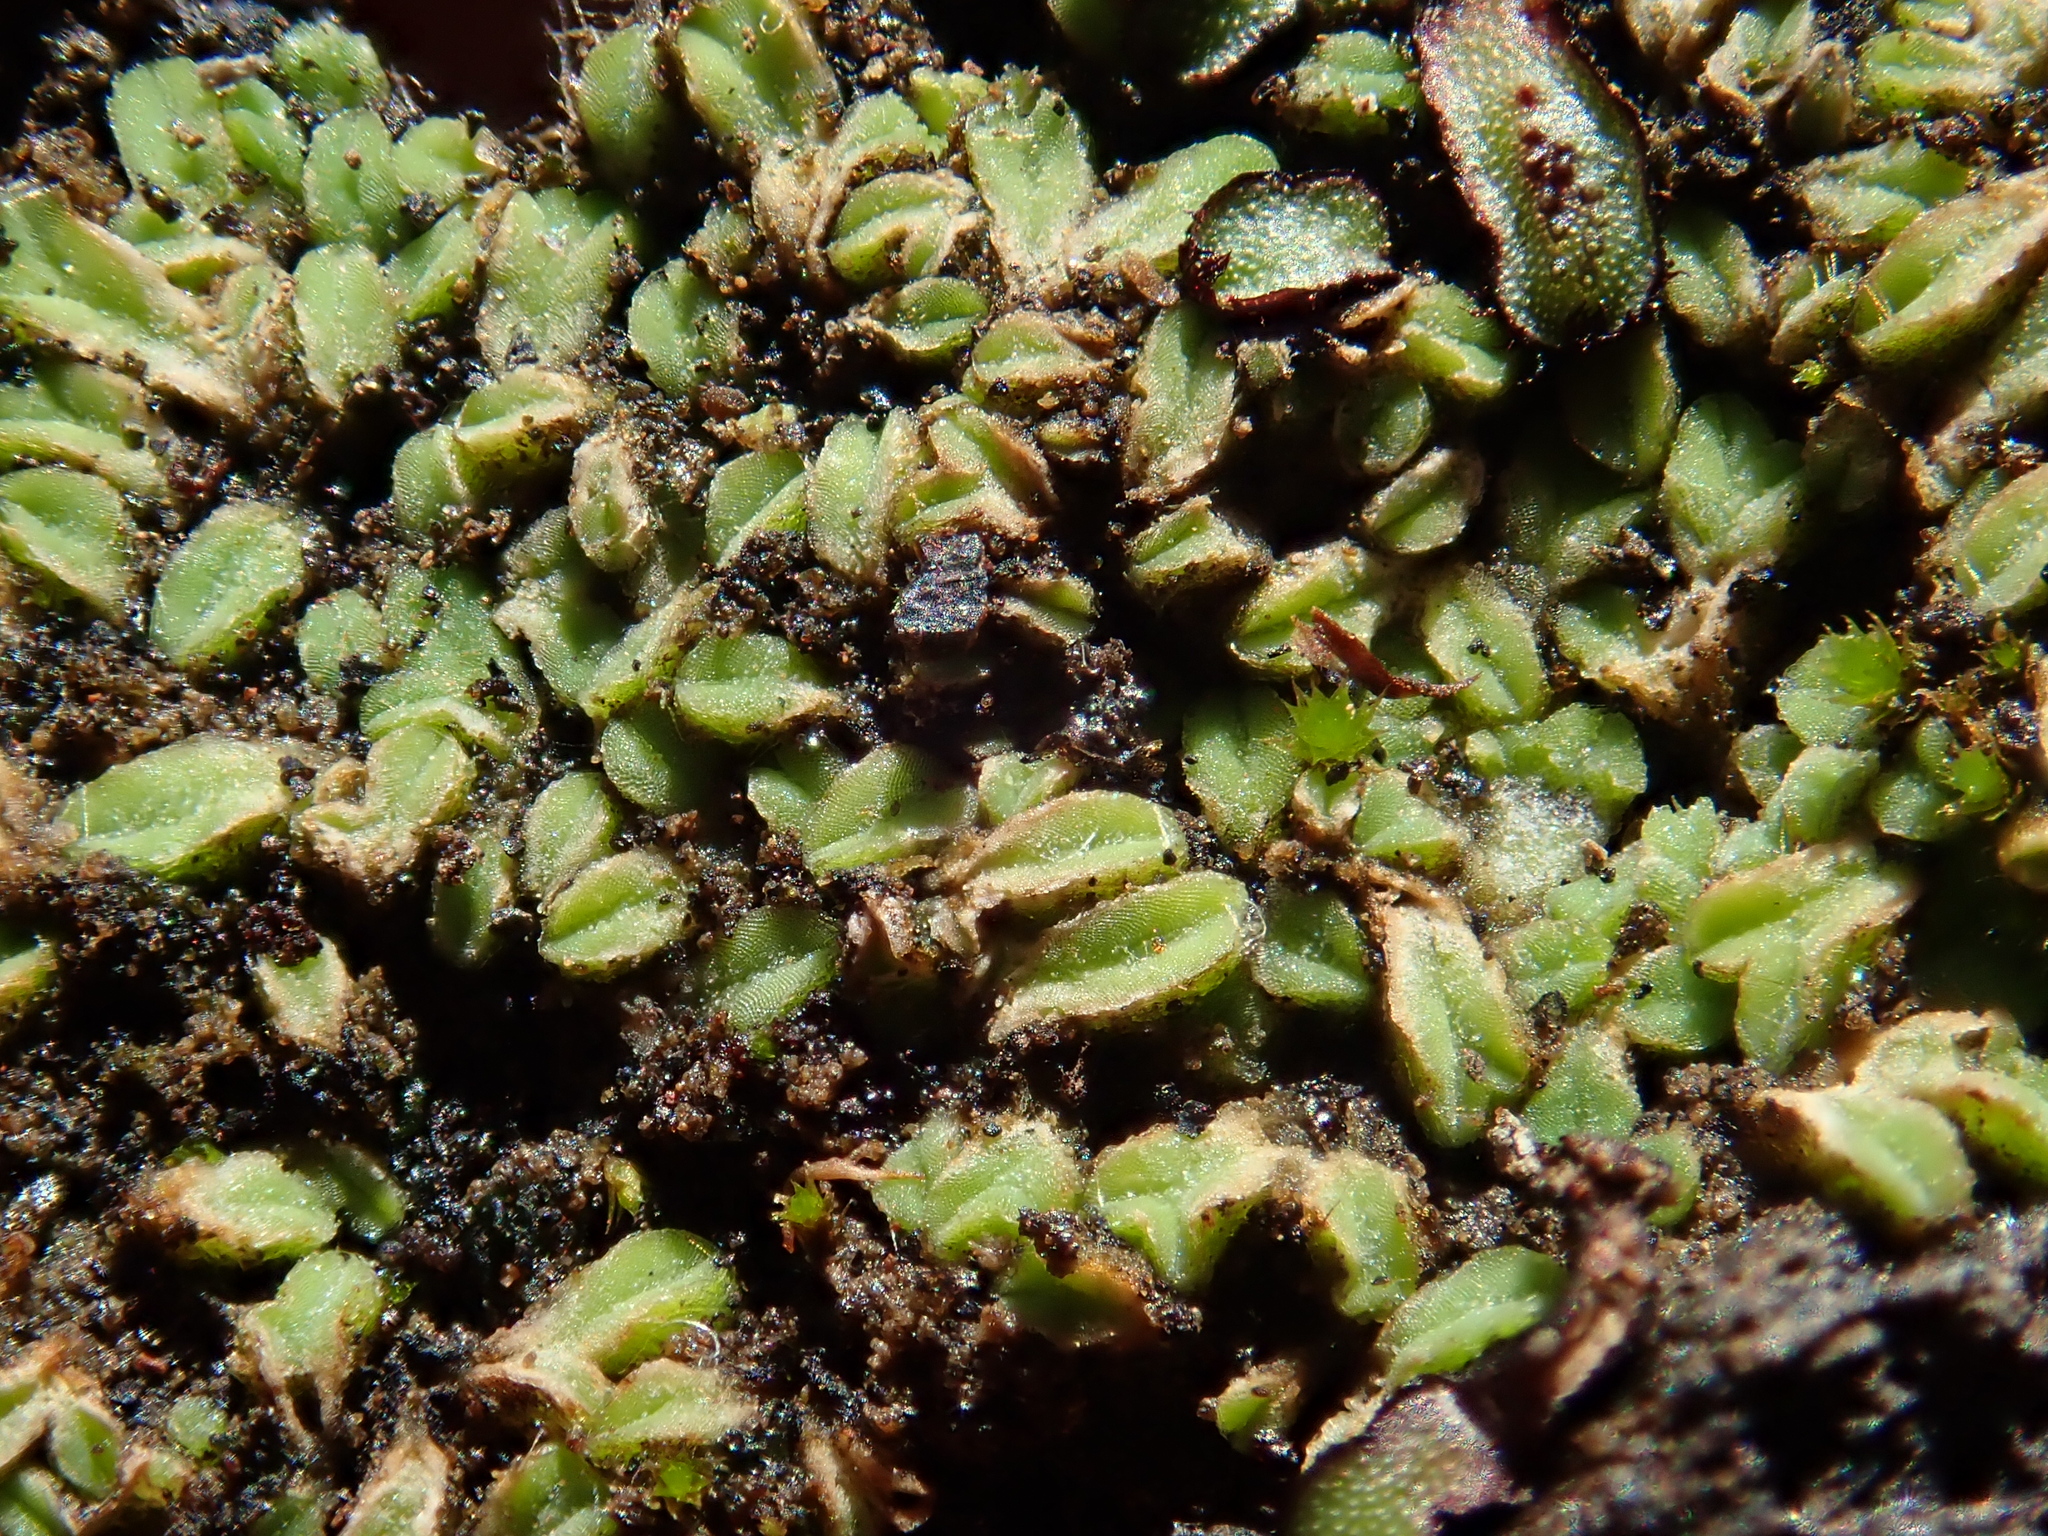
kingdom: Plantae
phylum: Marchantiophyta
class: Marchantiopsida
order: Marchantiales
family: Ricciaceae
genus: Riccia
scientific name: Riccia sorocarpa
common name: Common crystalwort
